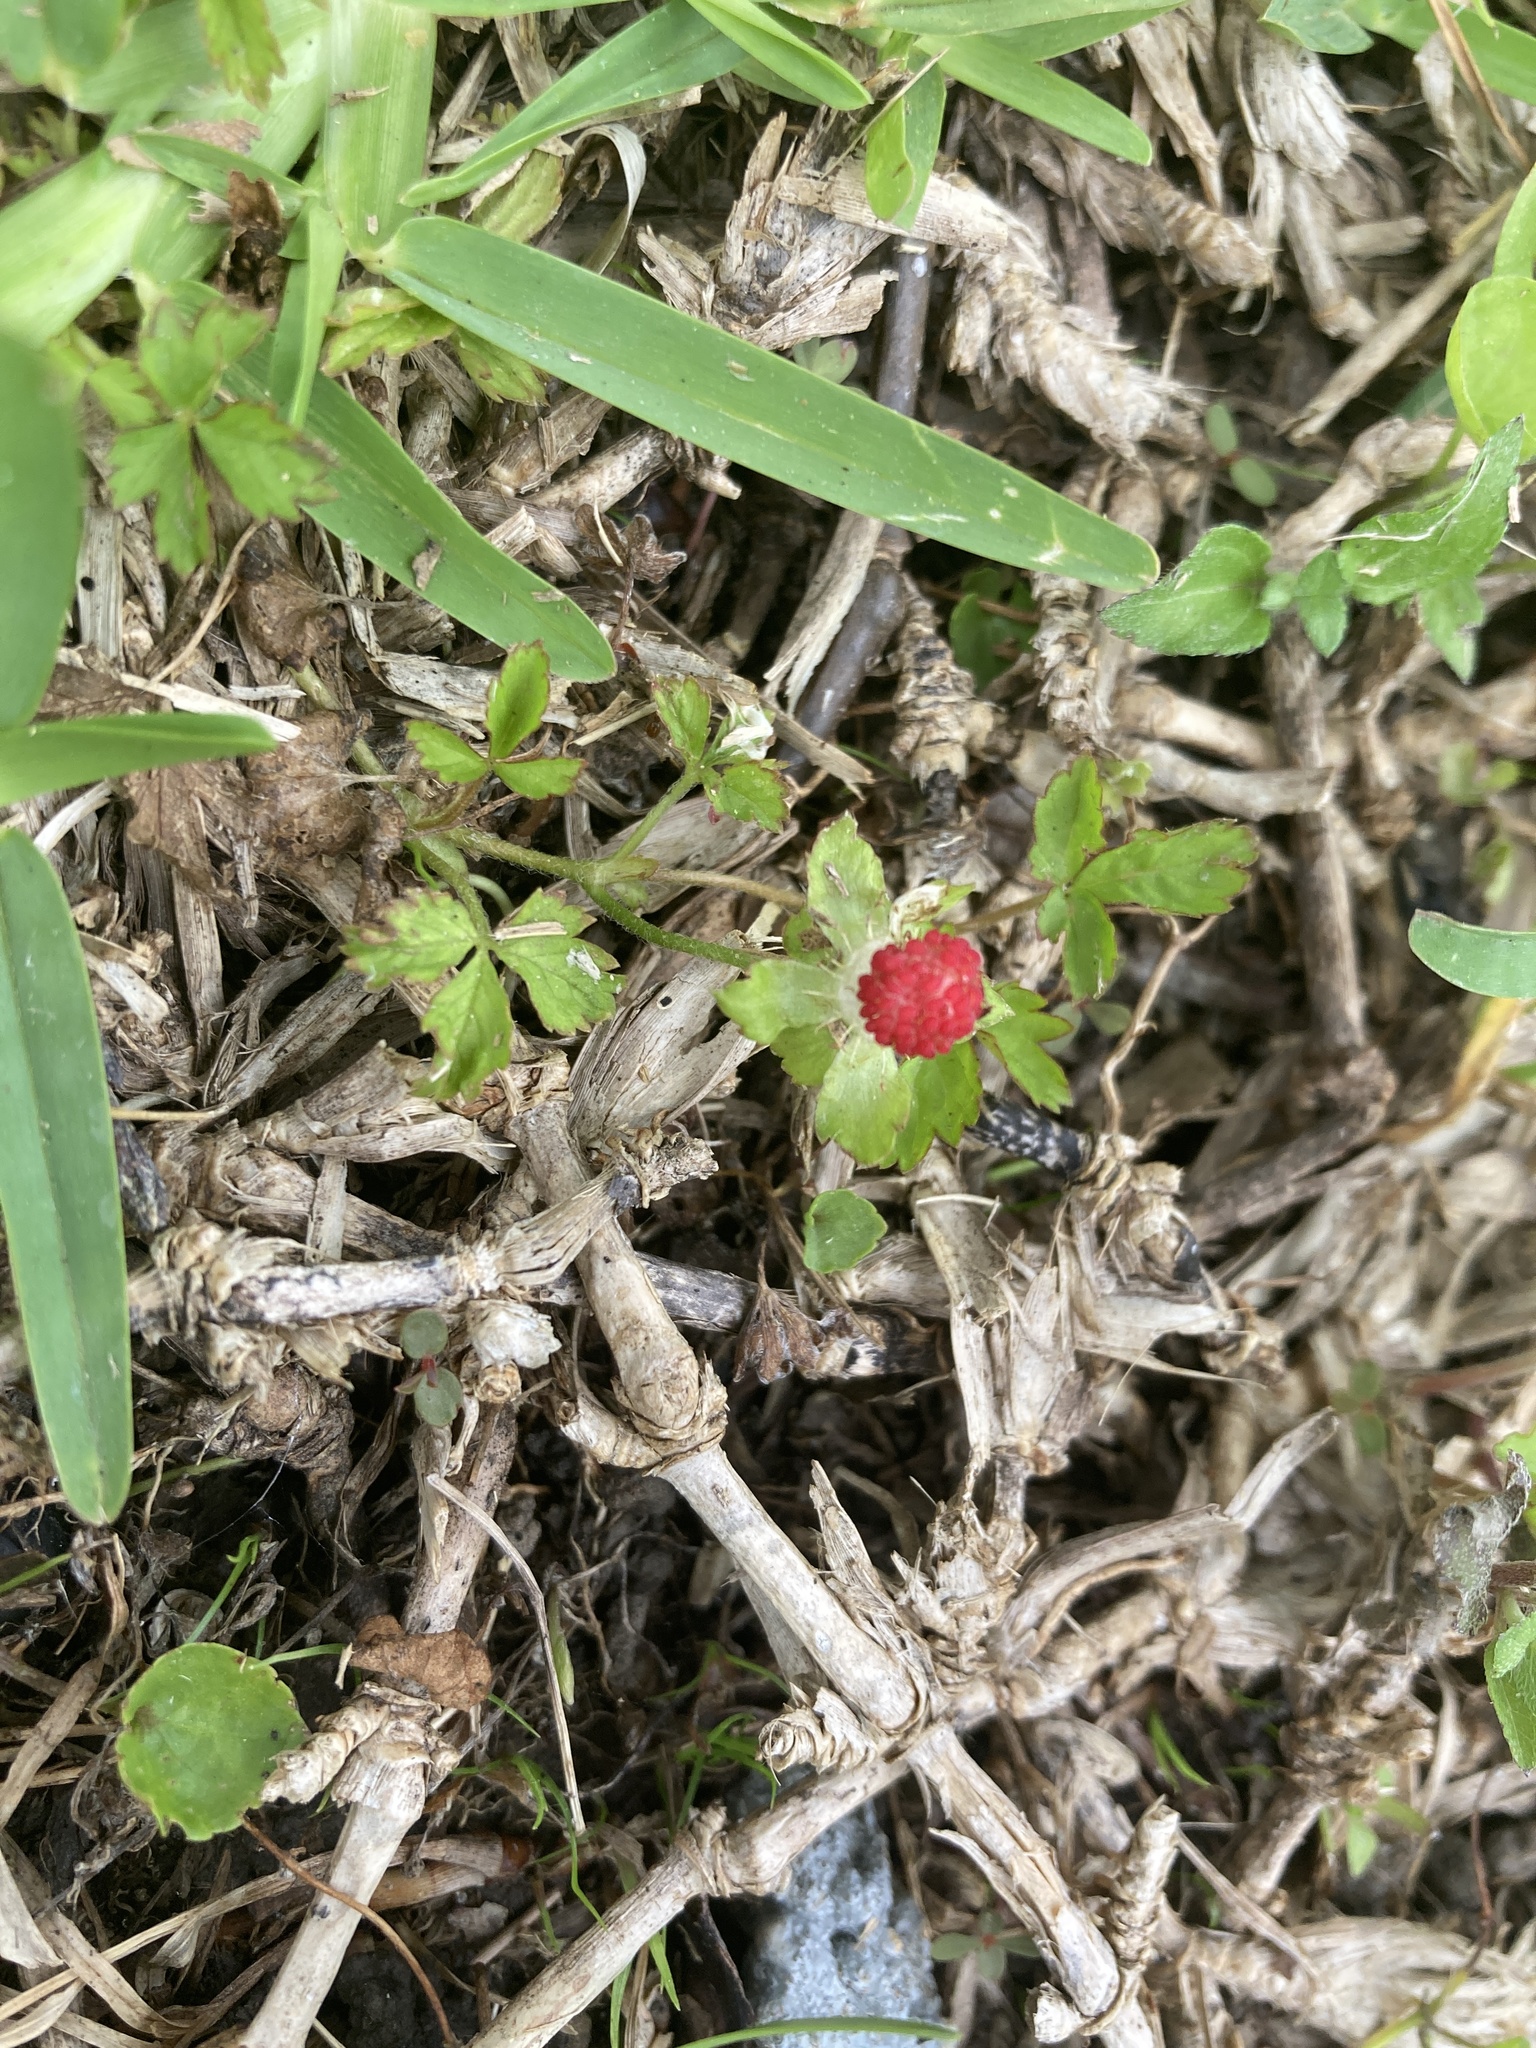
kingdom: Plantae
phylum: Tracheophyta
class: Magnoliopsida
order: Rosales
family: Rosaceae
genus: Potentilla
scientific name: Potentilla indica
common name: Yellow-flowered strawberry
